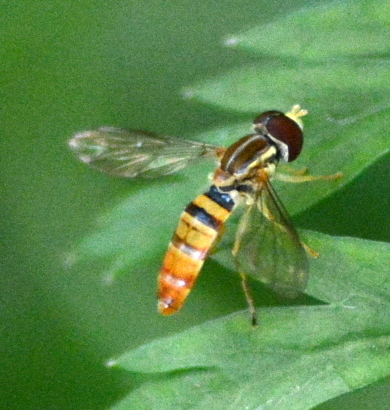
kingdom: Animalia
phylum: Arthropoda
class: Insecta
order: Diptera
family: Syrphidae
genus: Toxomerus
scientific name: Toxomerus politus
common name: Maize calligrapher
